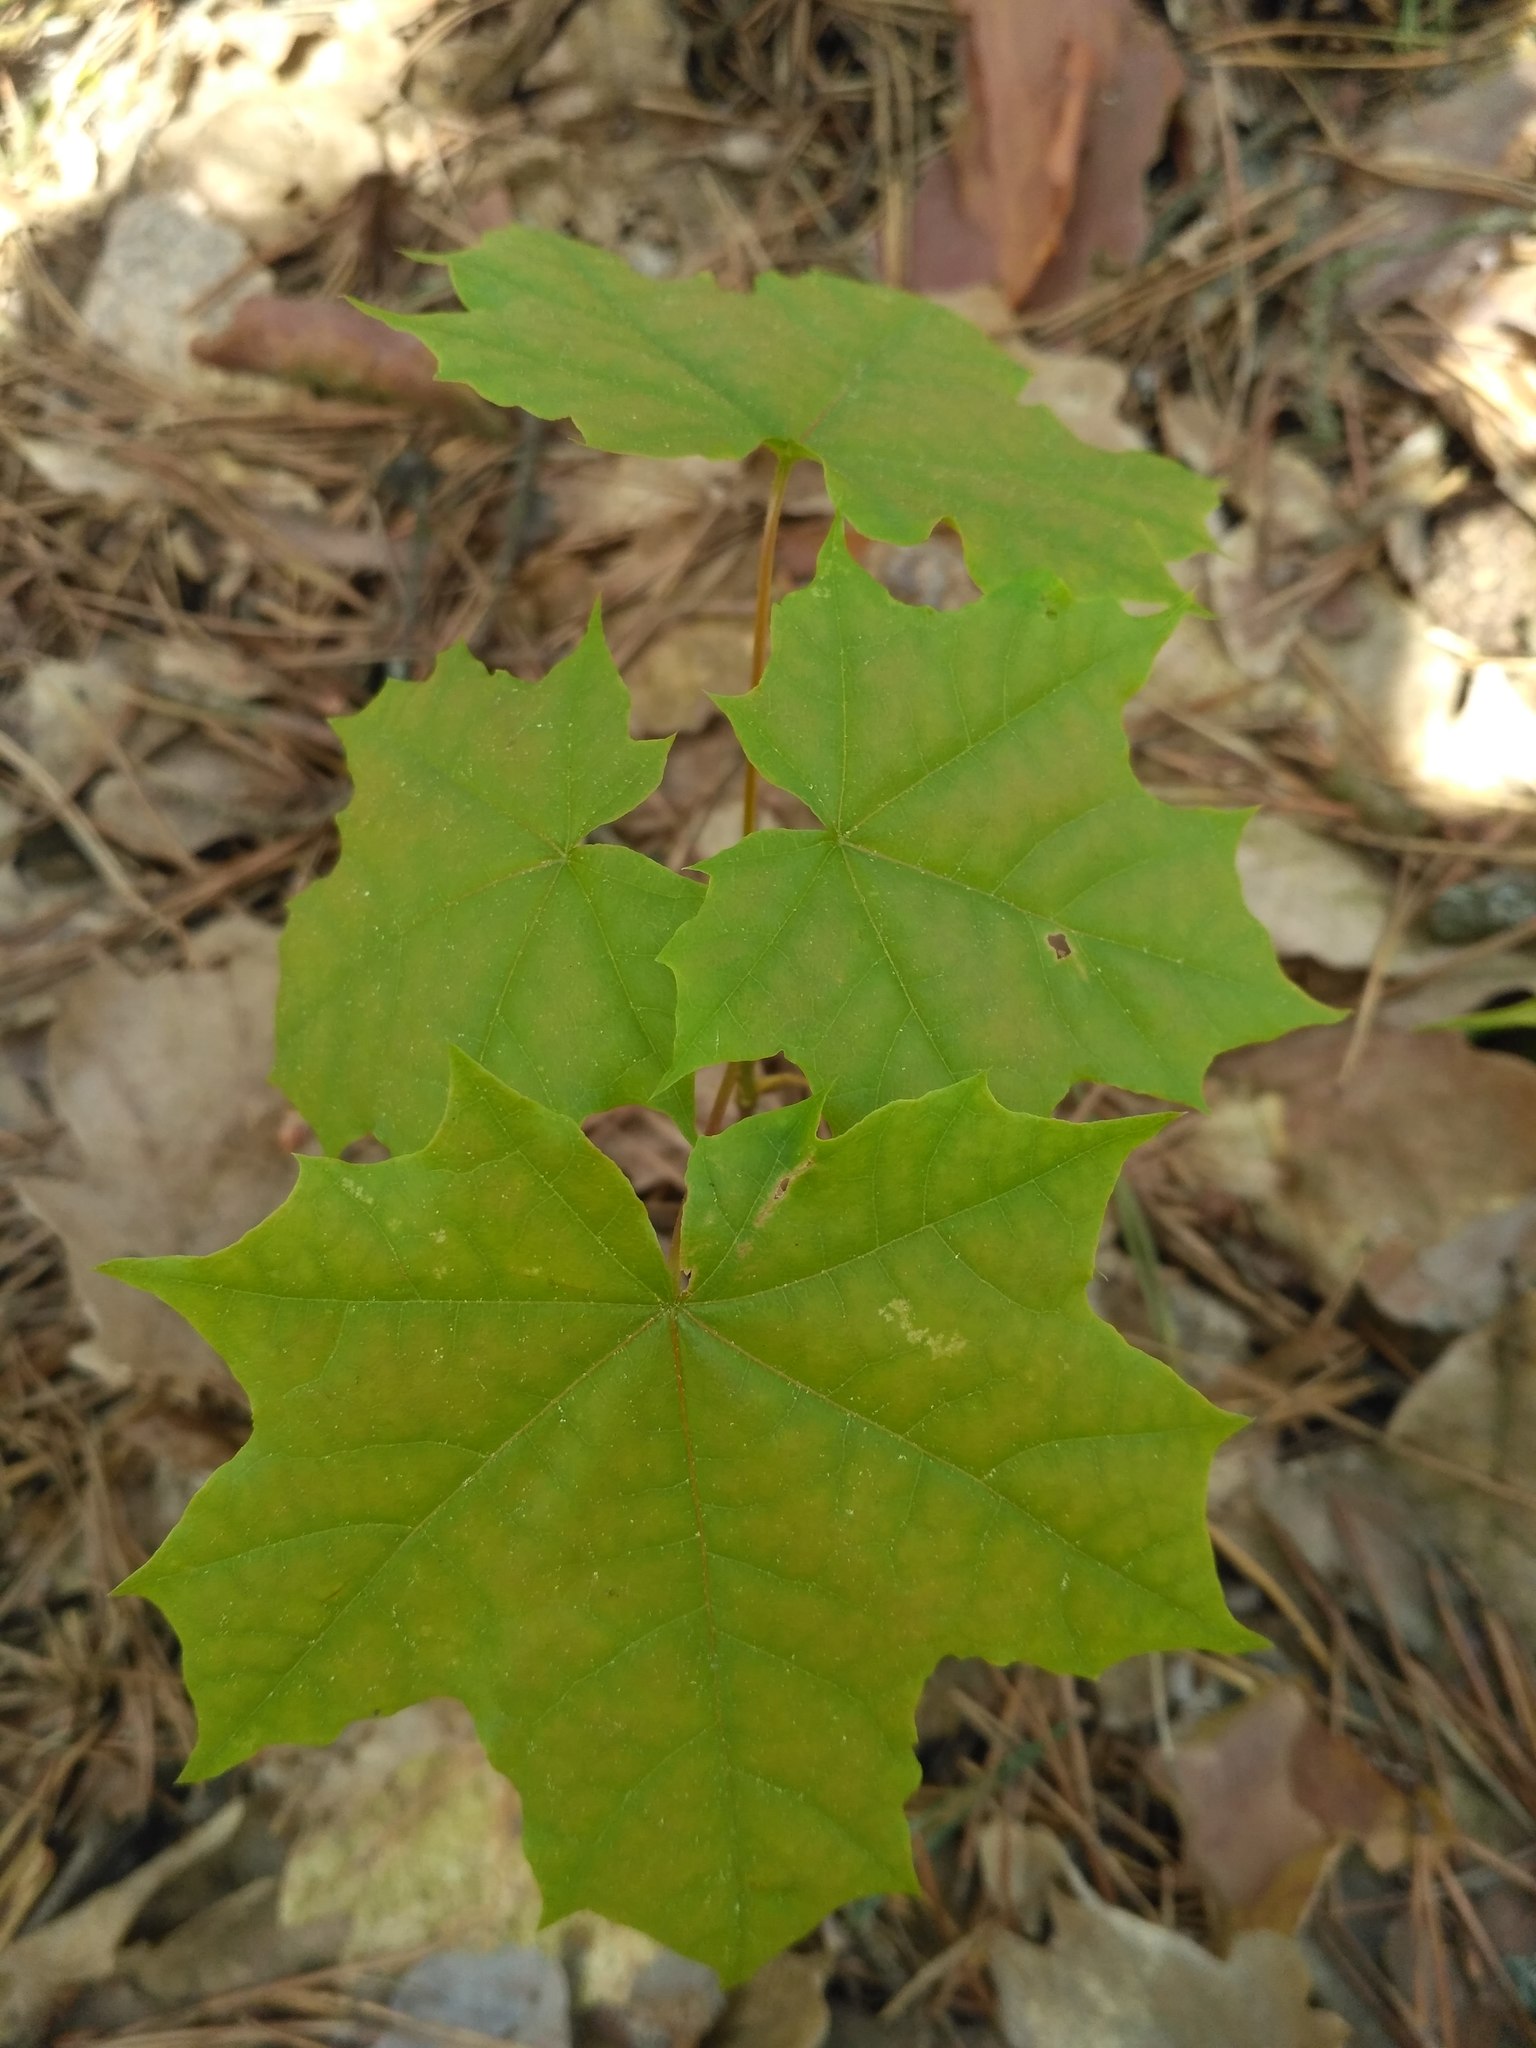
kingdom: Plantae
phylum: Tracheophyta
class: Magnoliopsida
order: Sapindales
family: Sapindaceae
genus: Acer
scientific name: Acer platanoides
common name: Norway maple
